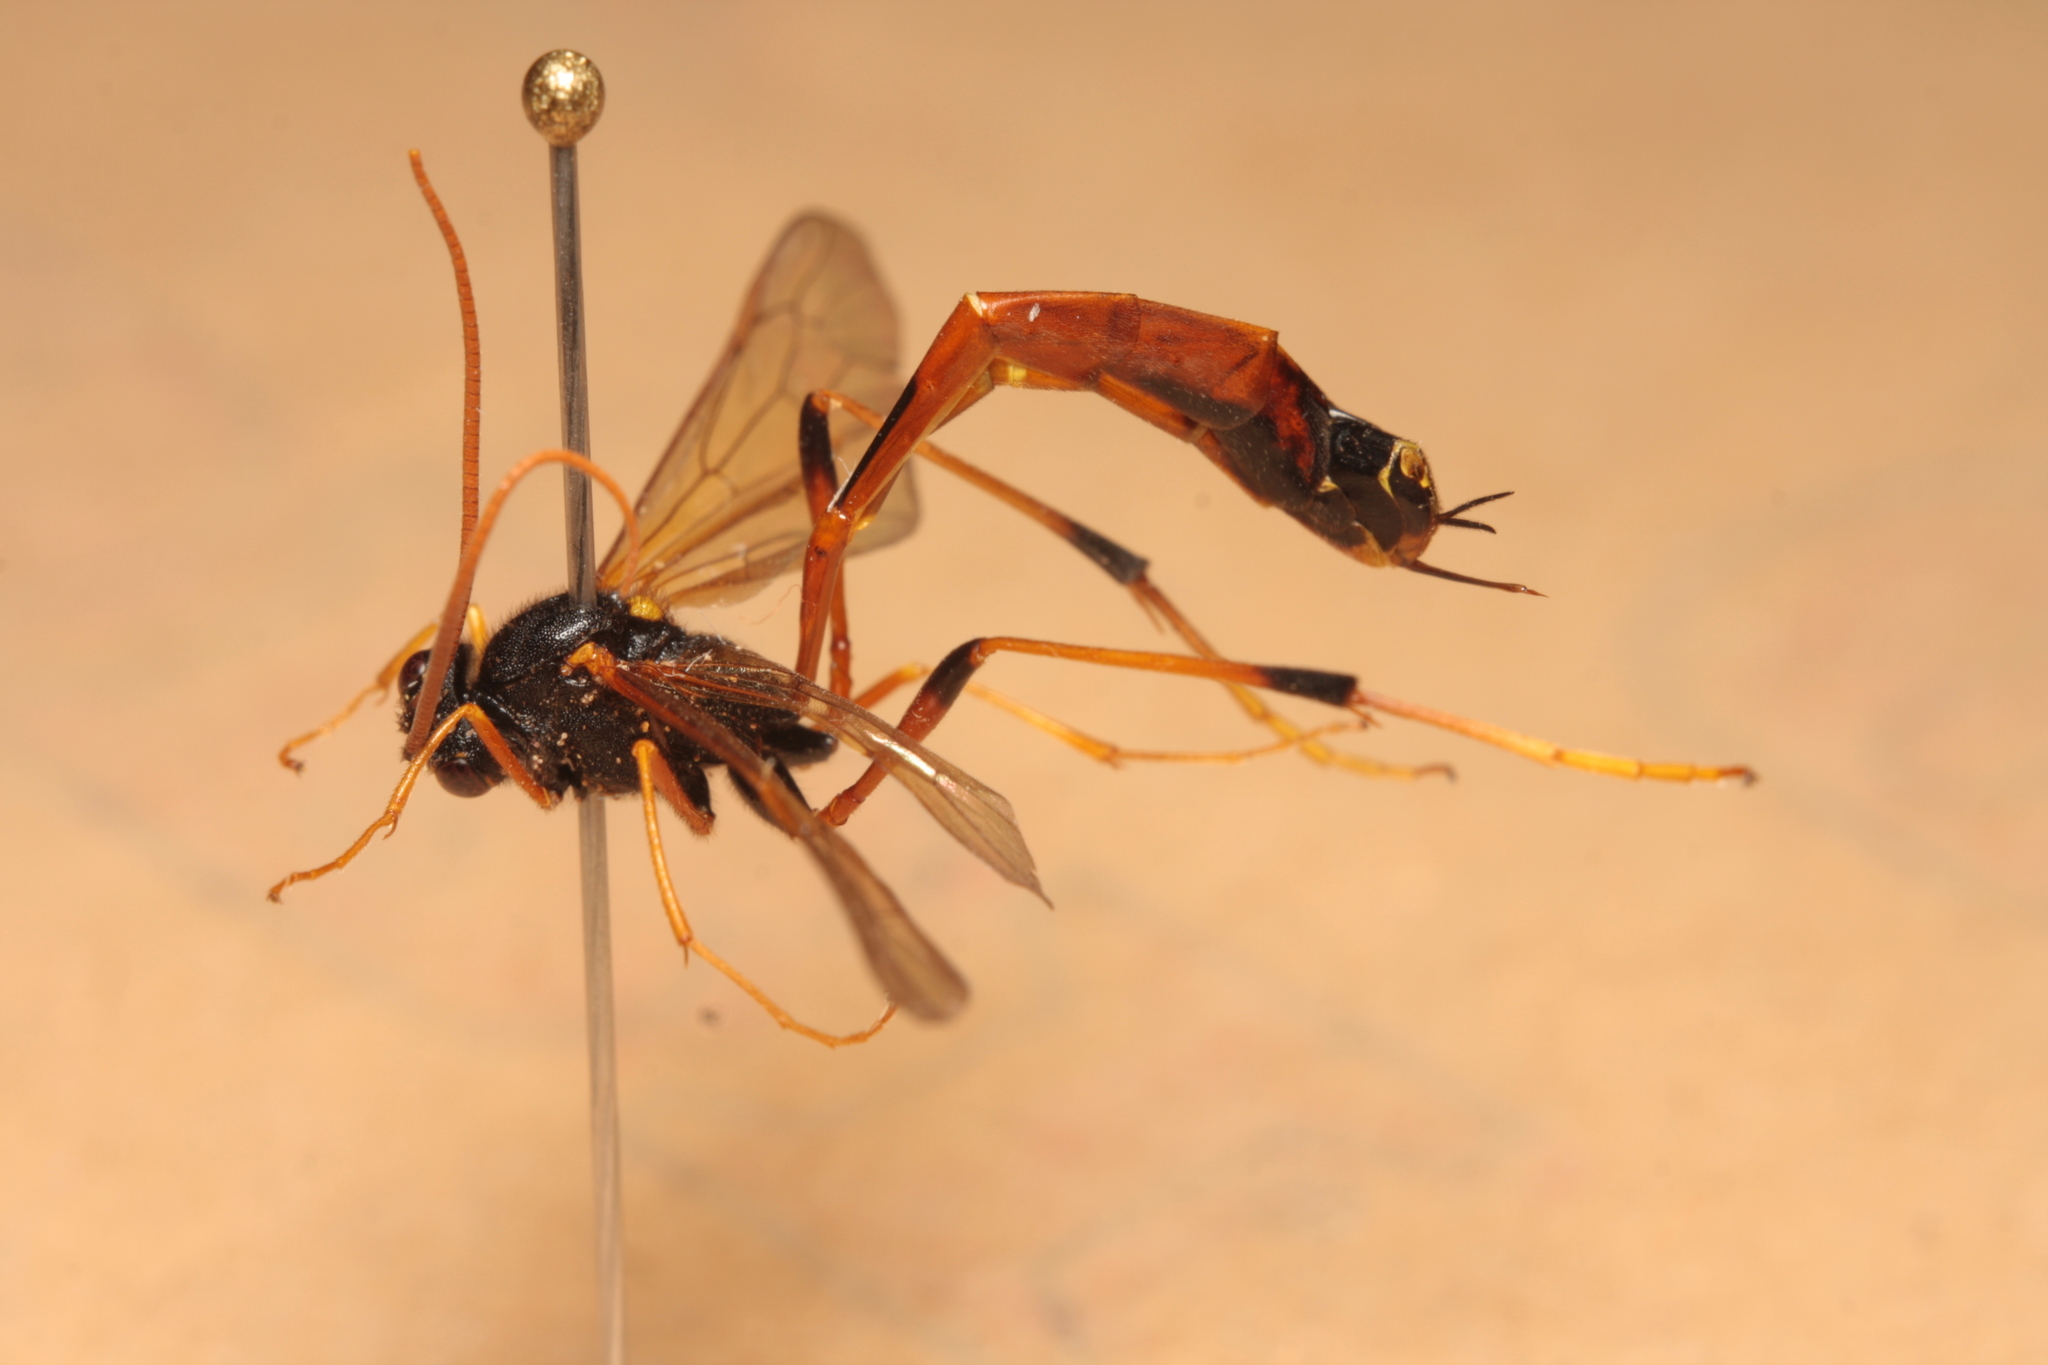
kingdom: Animalia
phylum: Arthropoda
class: Insecta
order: Hymenoptera
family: Ichneumonidae
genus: Therion
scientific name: Therion circumflexum
